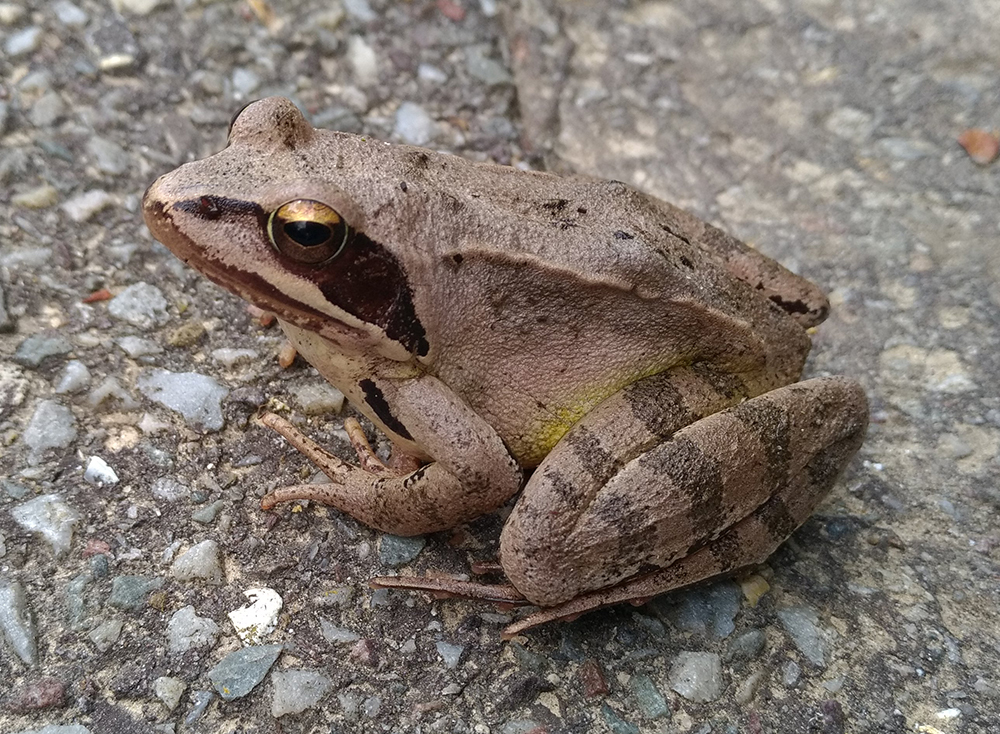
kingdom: Animalia
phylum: Chordata
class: Amphibia
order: Anura
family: Ranidae
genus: Rana
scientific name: Rana temporaria
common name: Common frog
